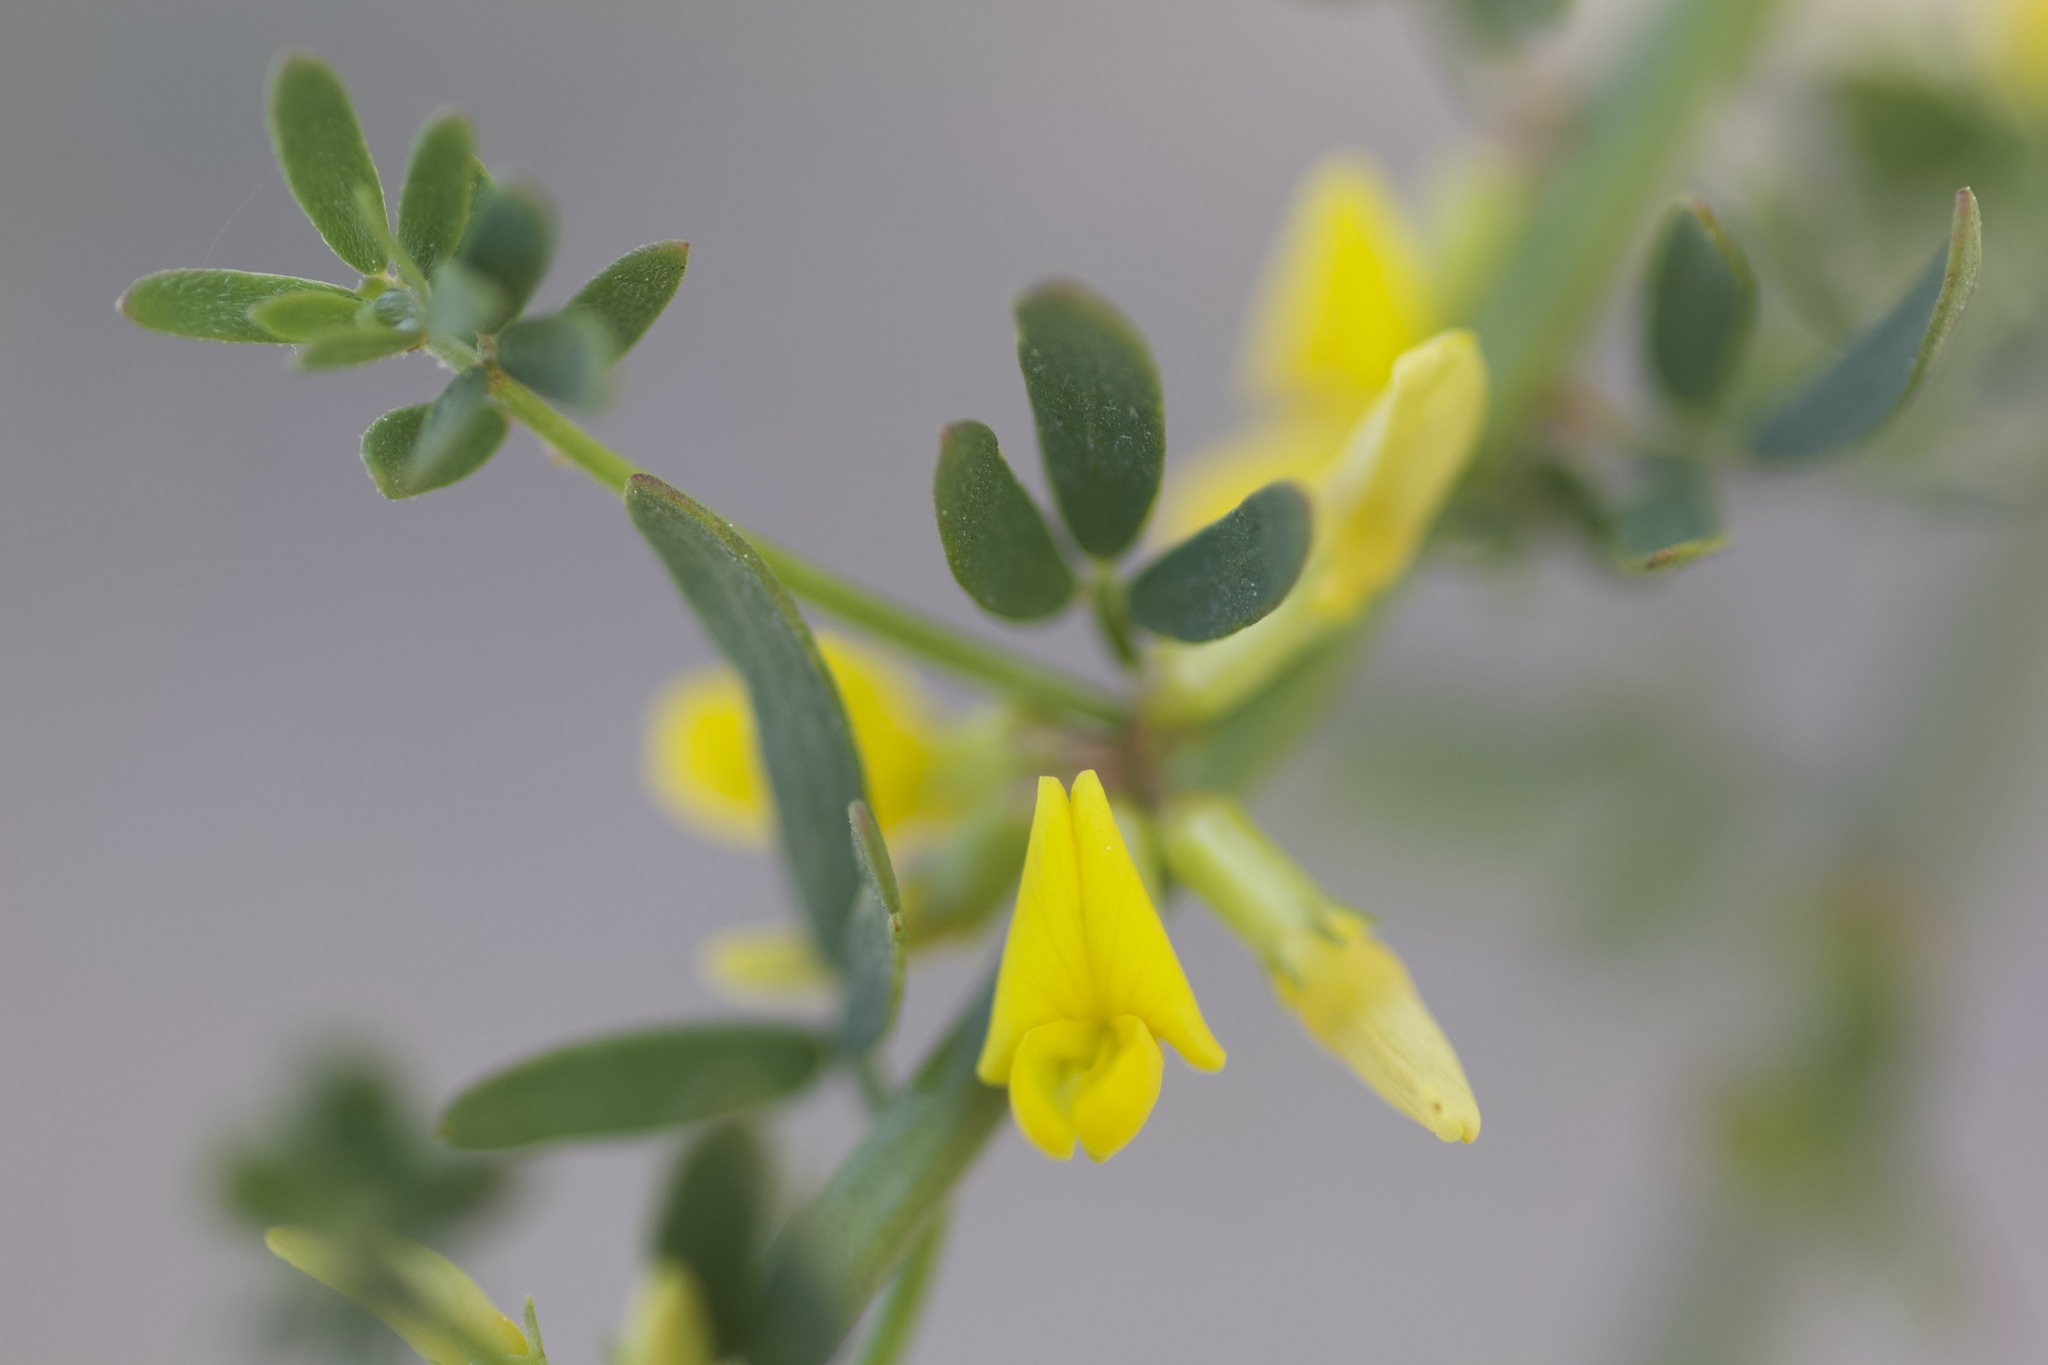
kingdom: Plantae
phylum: Tracheophyta
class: Magnoliopsida
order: Fabales
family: Fabaceae
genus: Acmispon
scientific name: Acmispon glaber
